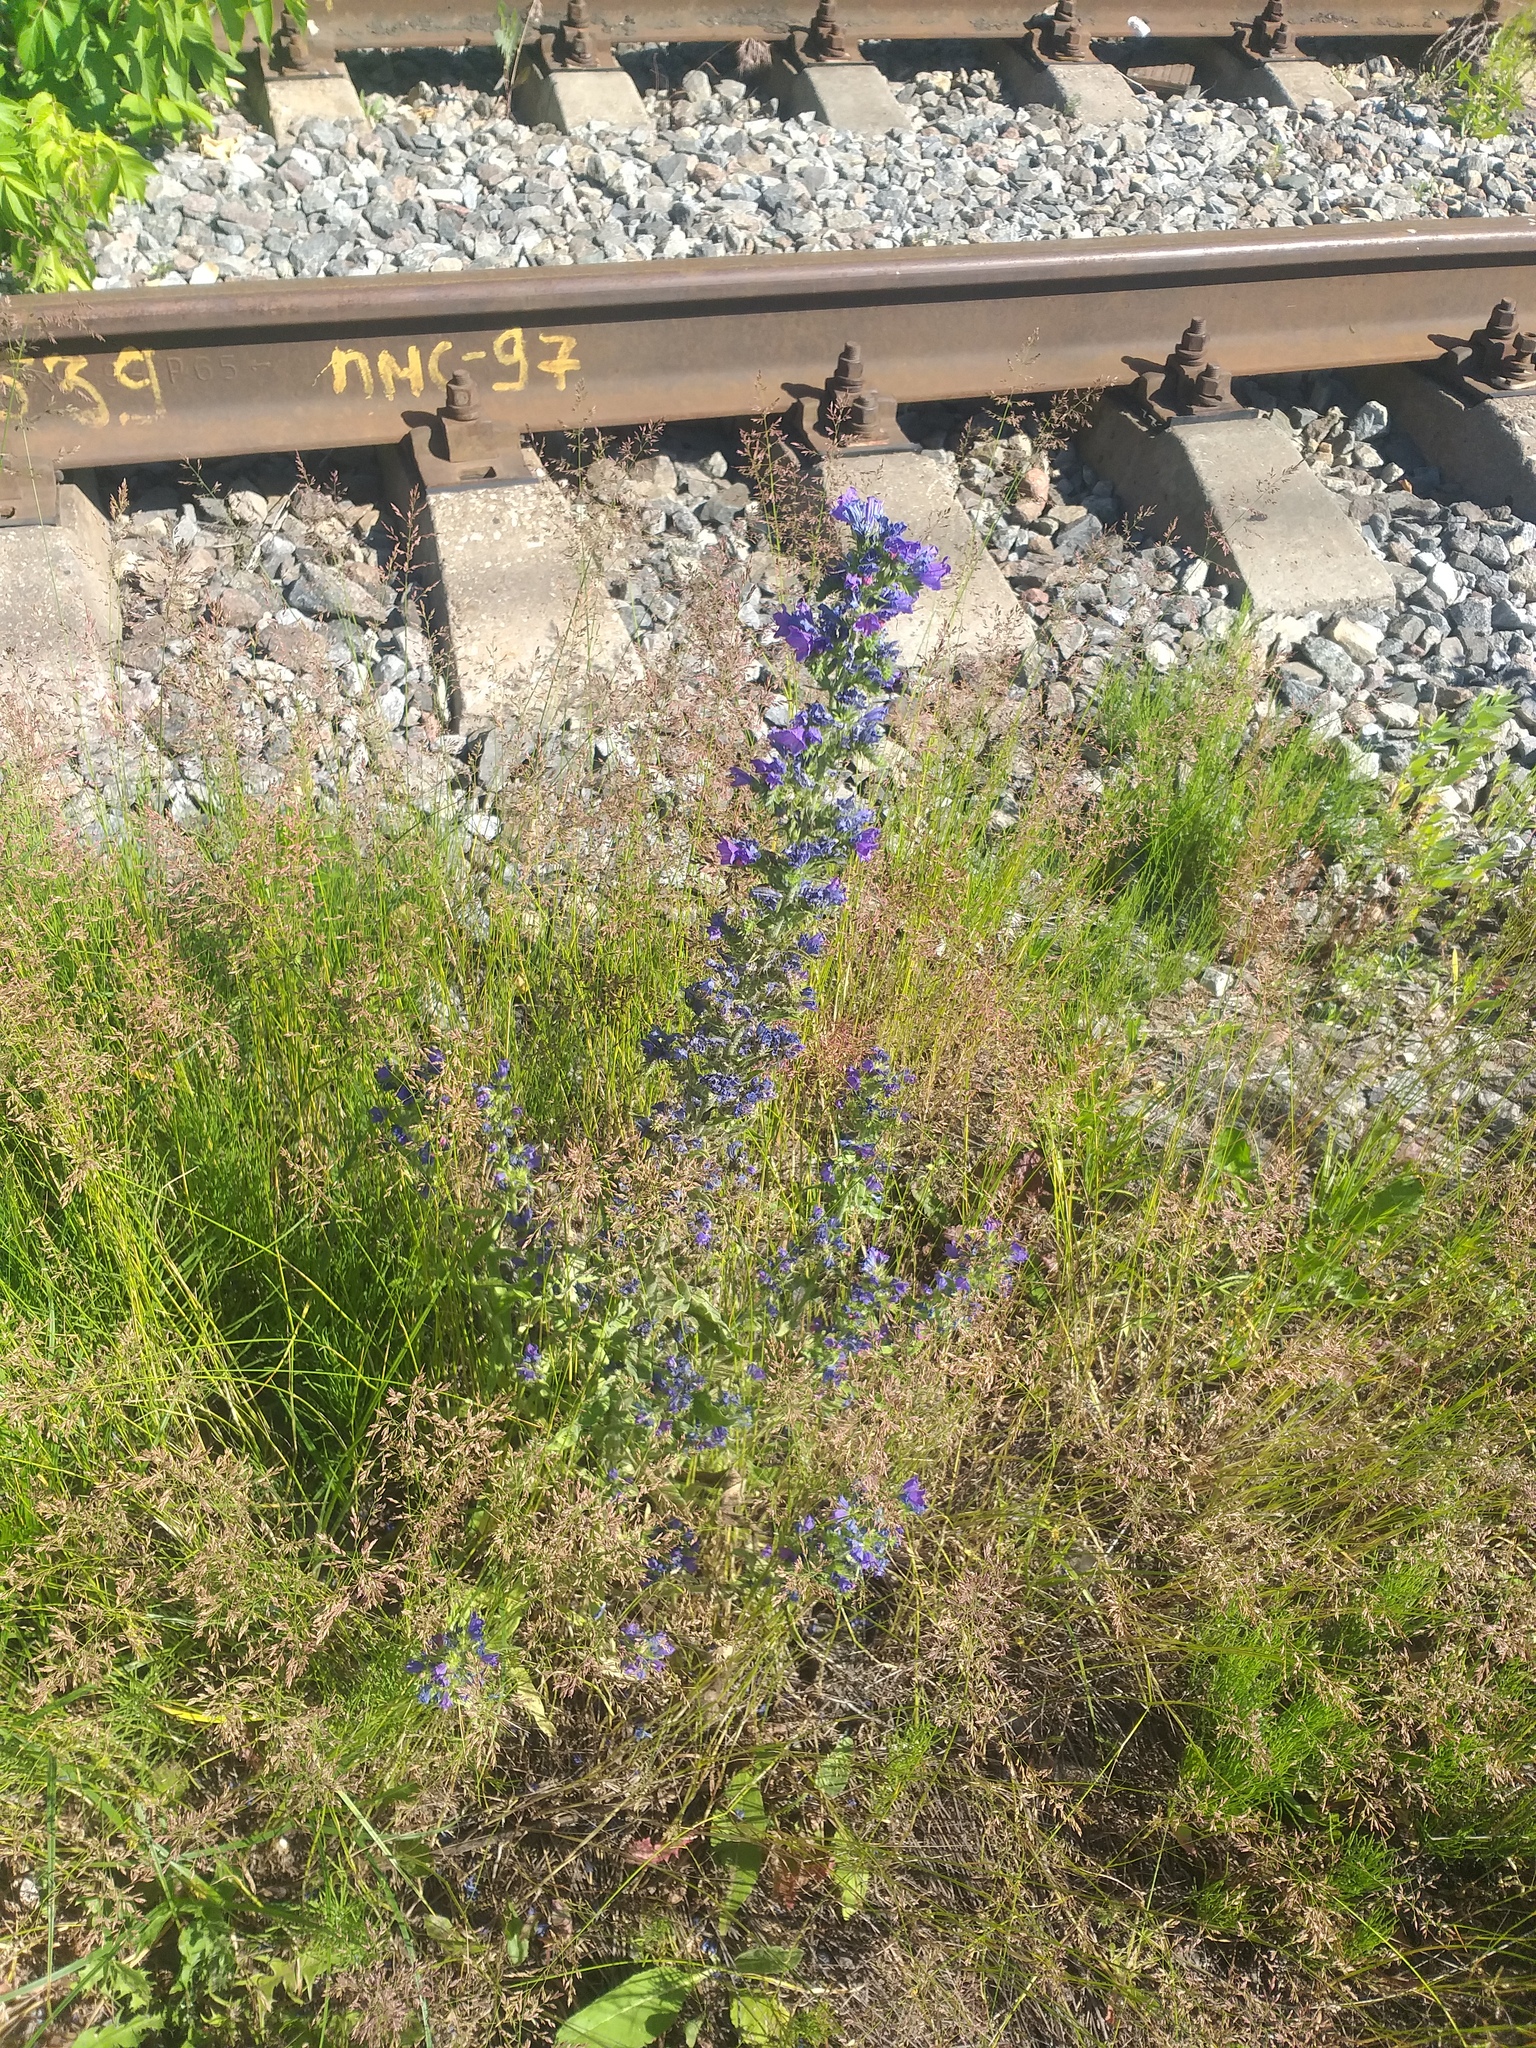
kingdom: Plantae
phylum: Tracheophyta
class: Magnoliopsida
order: Boraginales
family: Boraginaceae
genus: Echium
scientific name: Echium vulgare
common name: Common viper's bugloss
